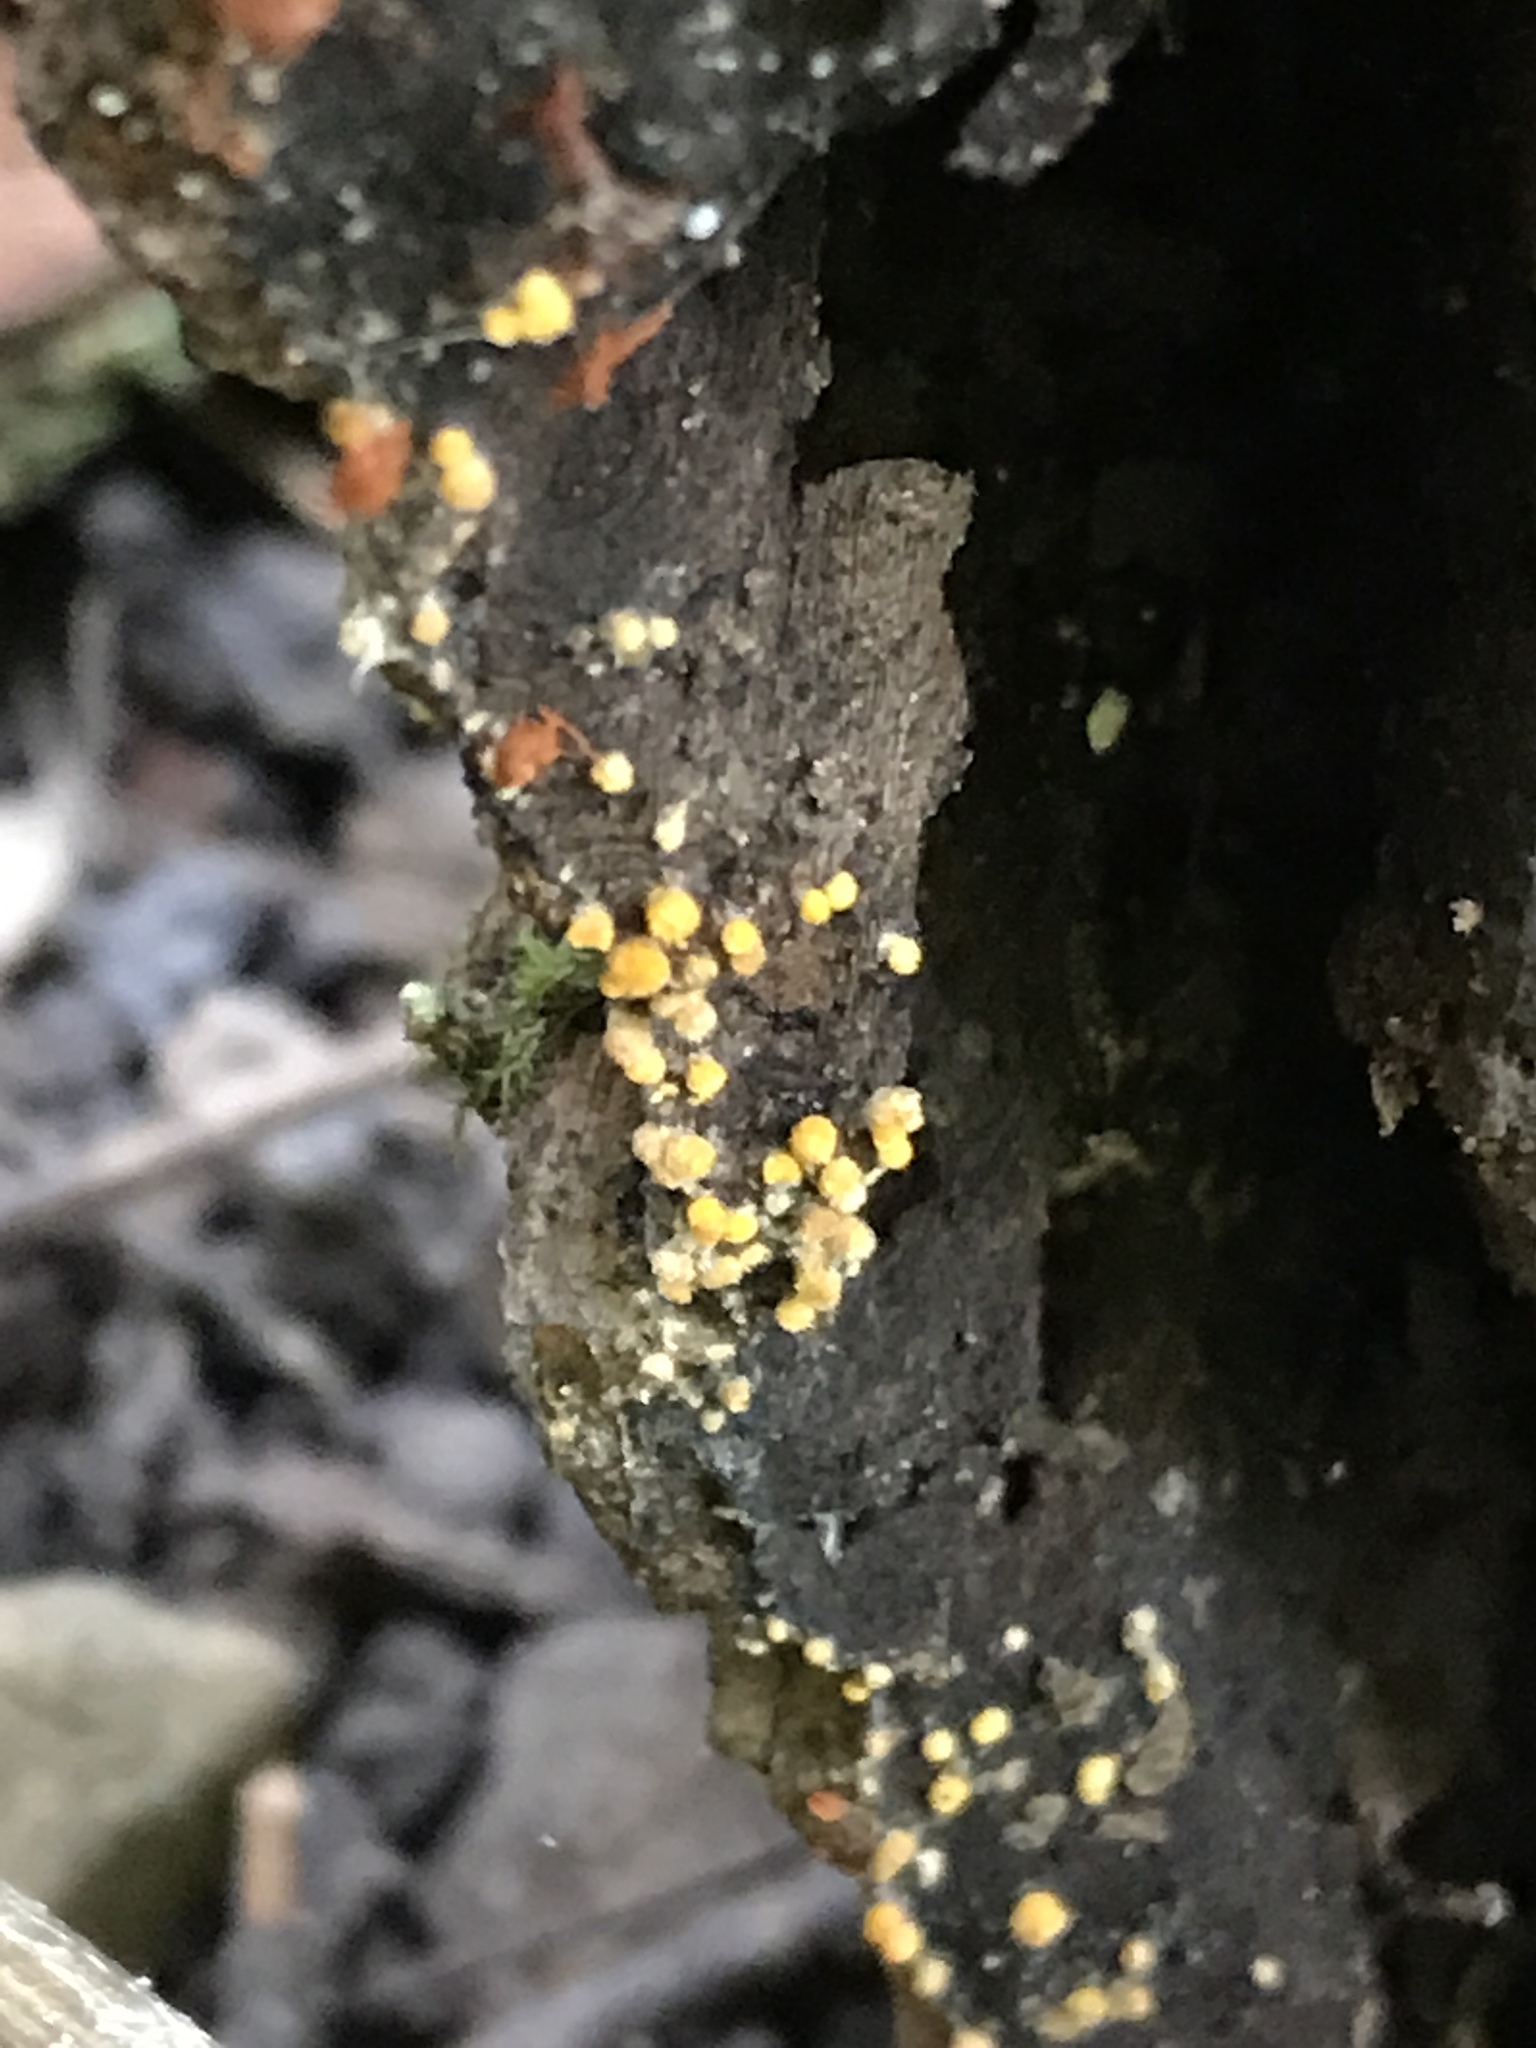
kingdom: Fungi
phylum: Ascomycota
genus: Bactridium
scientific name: Bactridium flavum
